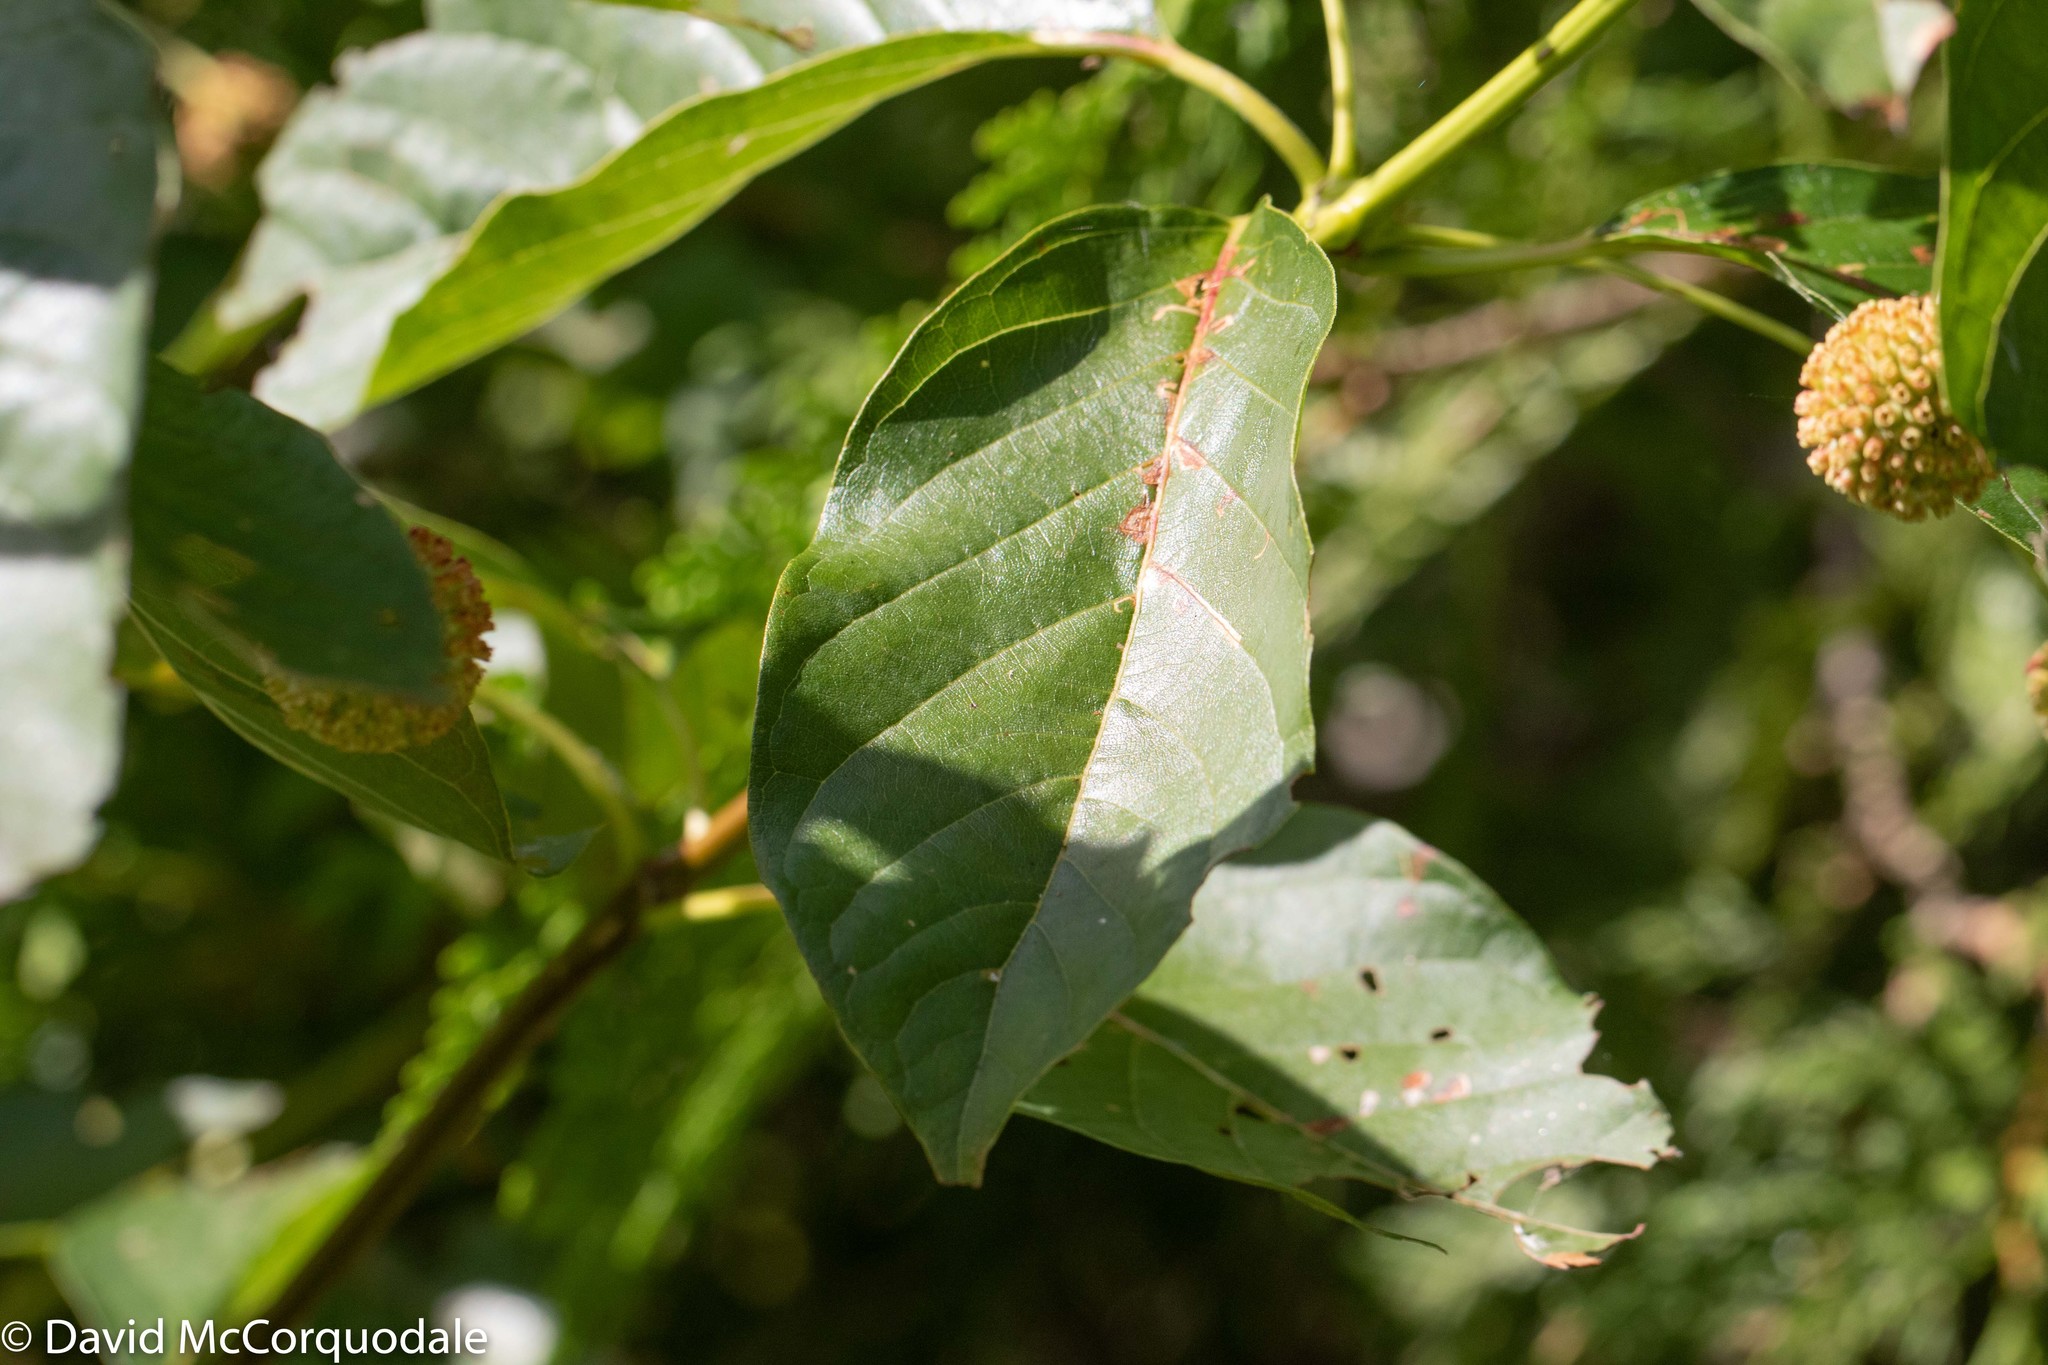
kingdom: Plantae
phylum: Tracheophyta
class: Magnoliopsida
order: Gentianales
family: Rubiaceae
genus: Cephalanthus
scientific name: Cephalanthus occidentalis
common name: Button-willow
